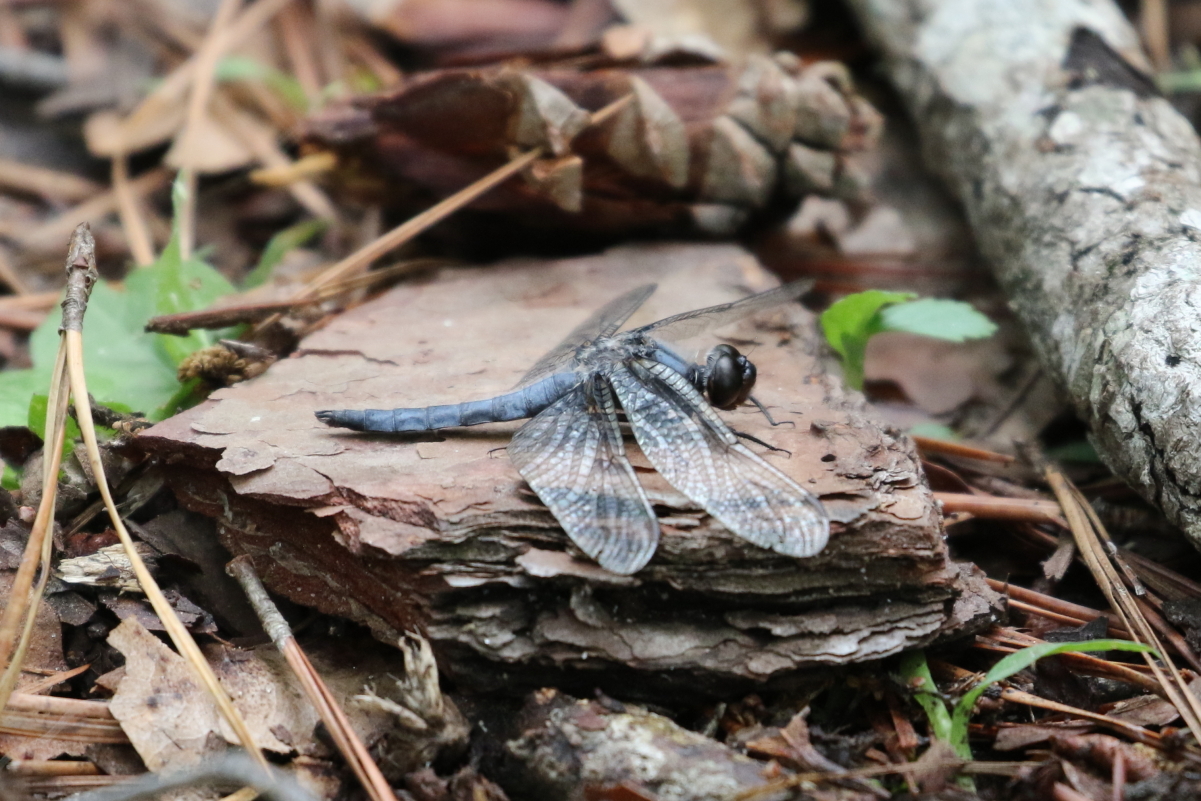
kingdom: Animalia
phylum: Arthropoda
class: Insecta
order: Odonata
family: Libellulidae
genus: Ladona
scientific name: Ladona deplanata
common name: Blue corporal
